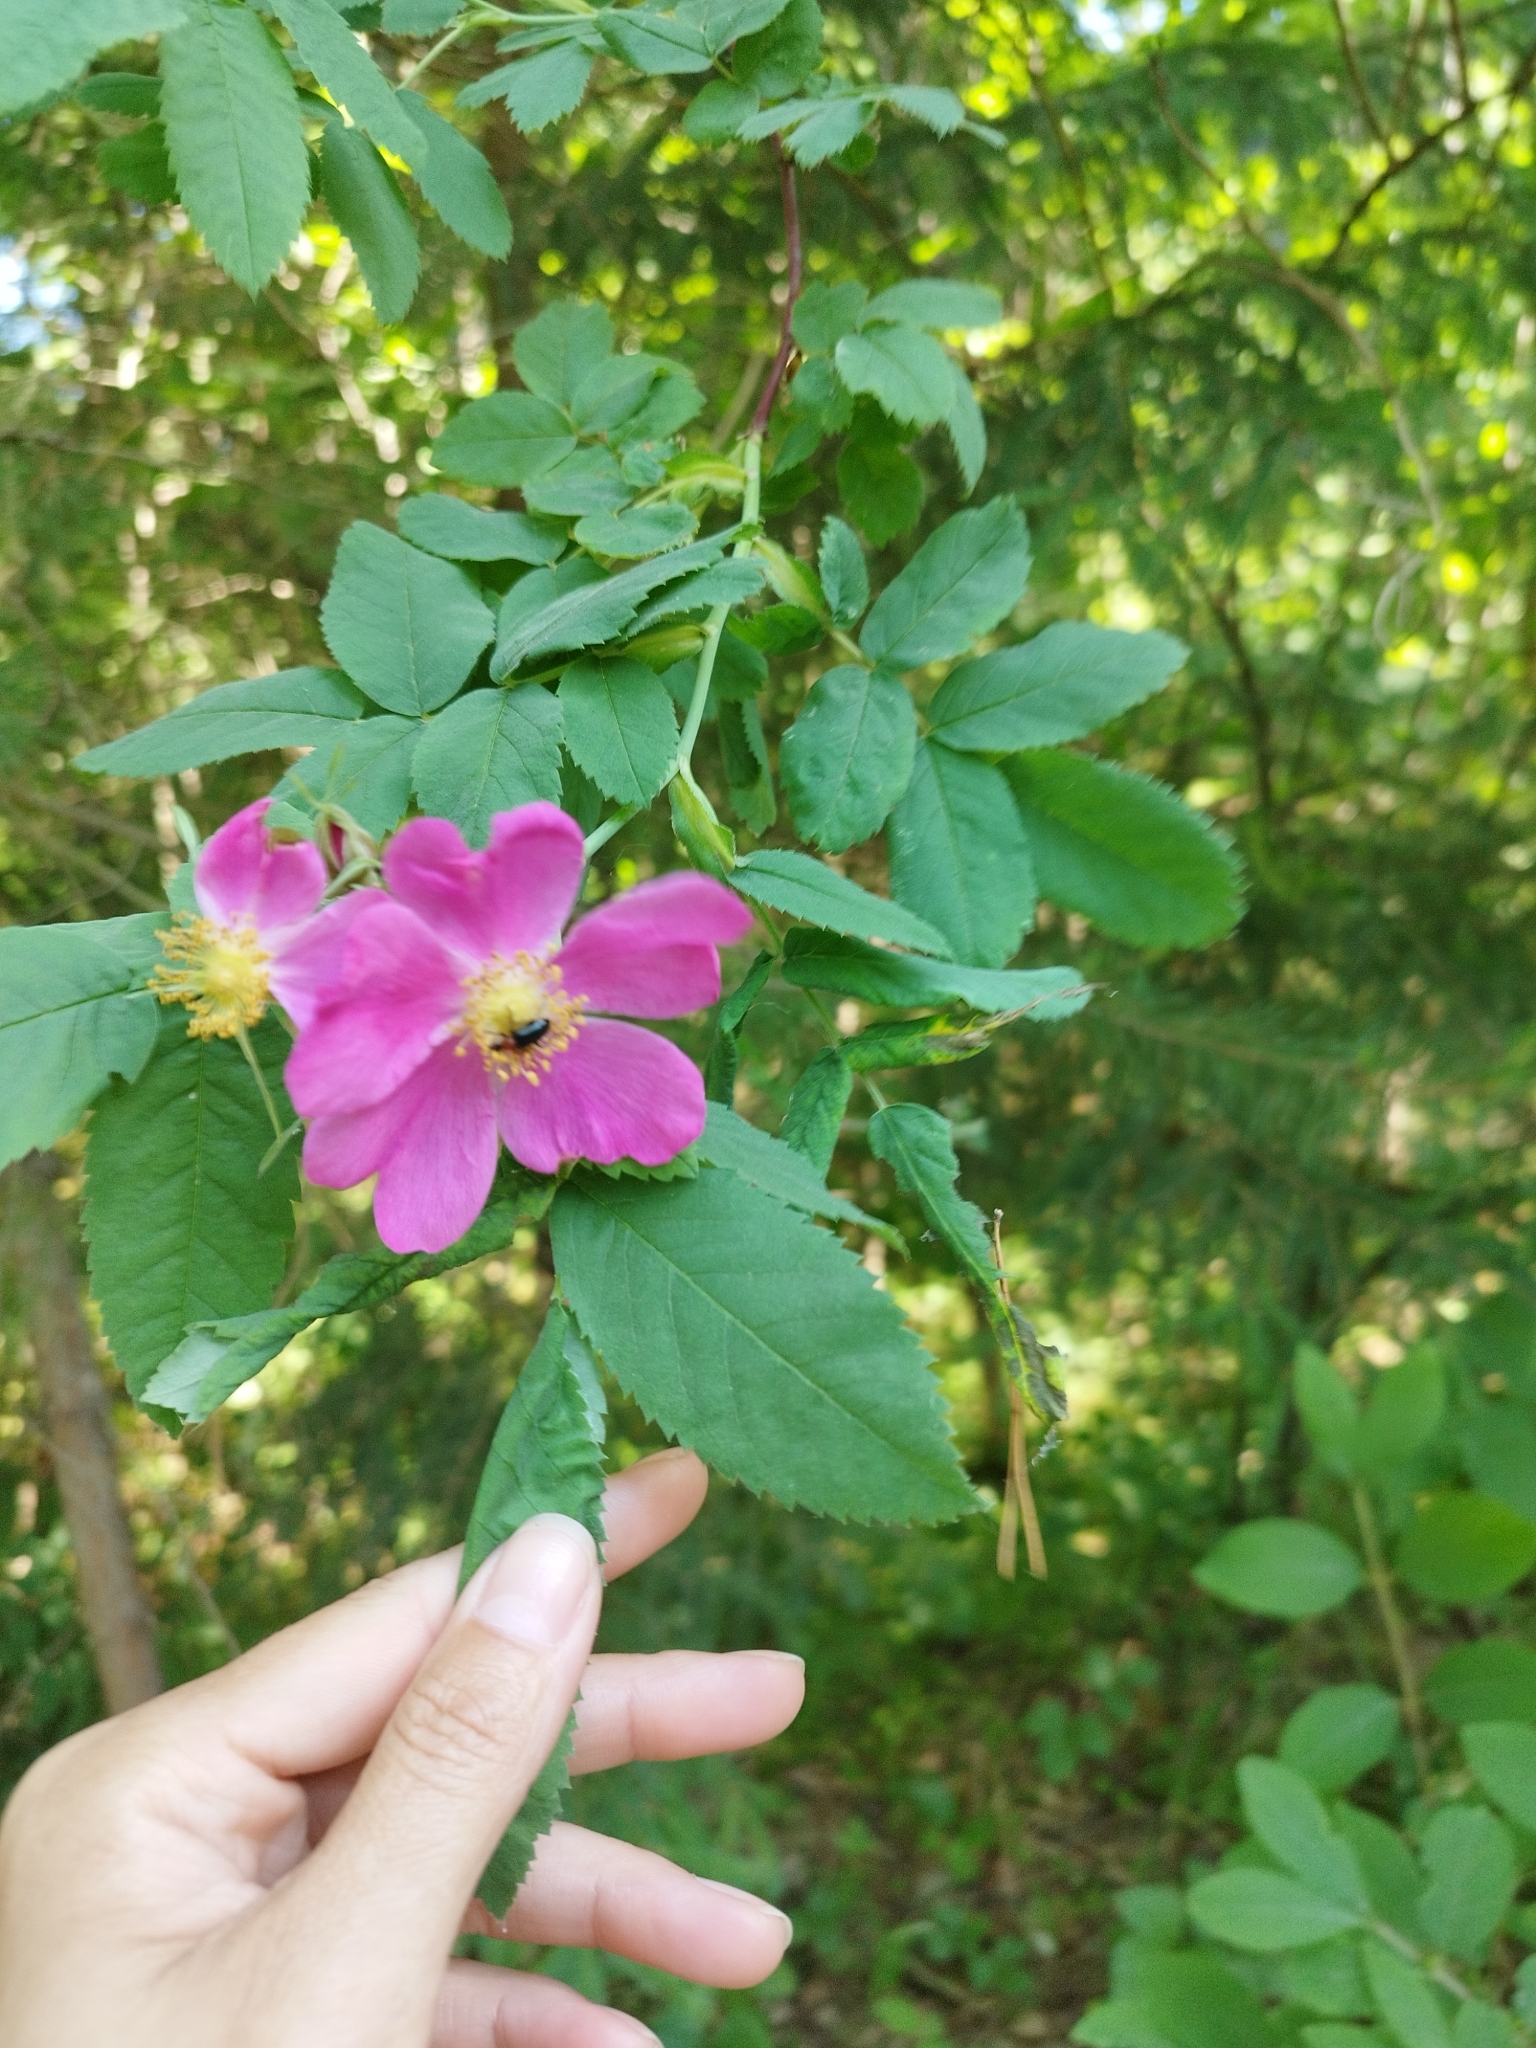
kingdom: Plantae
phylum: Tracheophyta
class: Magnoliopsida
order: Rosales
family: Rosaceae
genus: Rosa
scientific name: Rosa majalis
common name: Cinnamon rose
